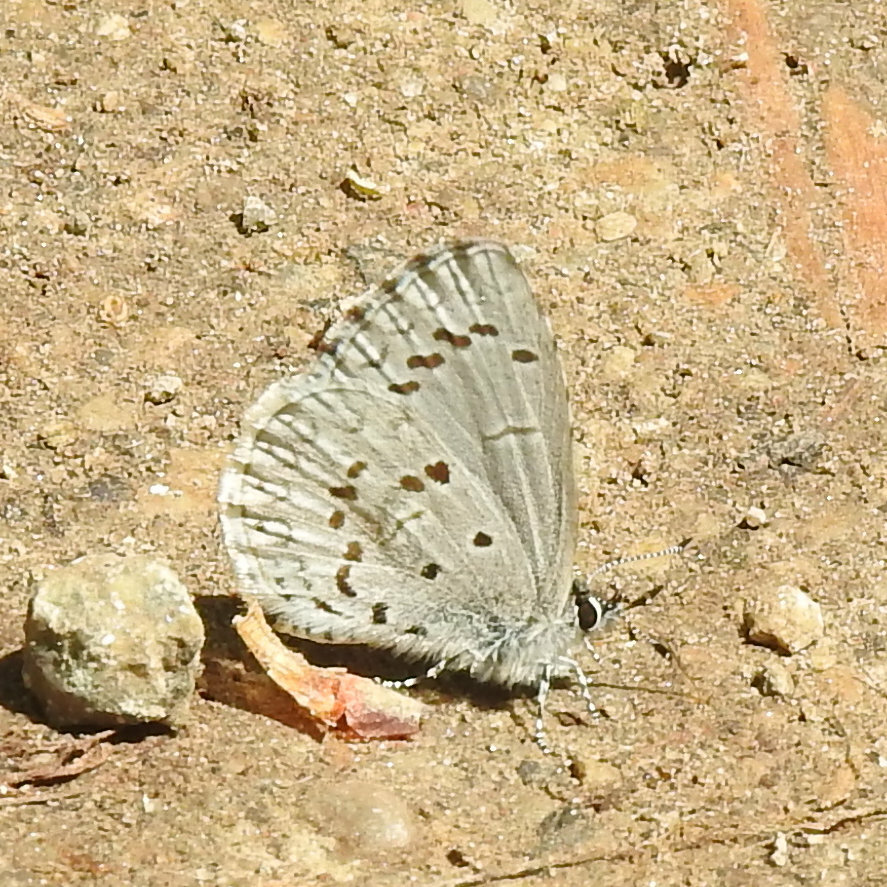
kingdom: Animalia
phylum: Arthropoda
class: Insecta
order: Lepidoptera
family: Lycaenidae
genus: Cyaniris
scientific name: Cyaniris neglecta
